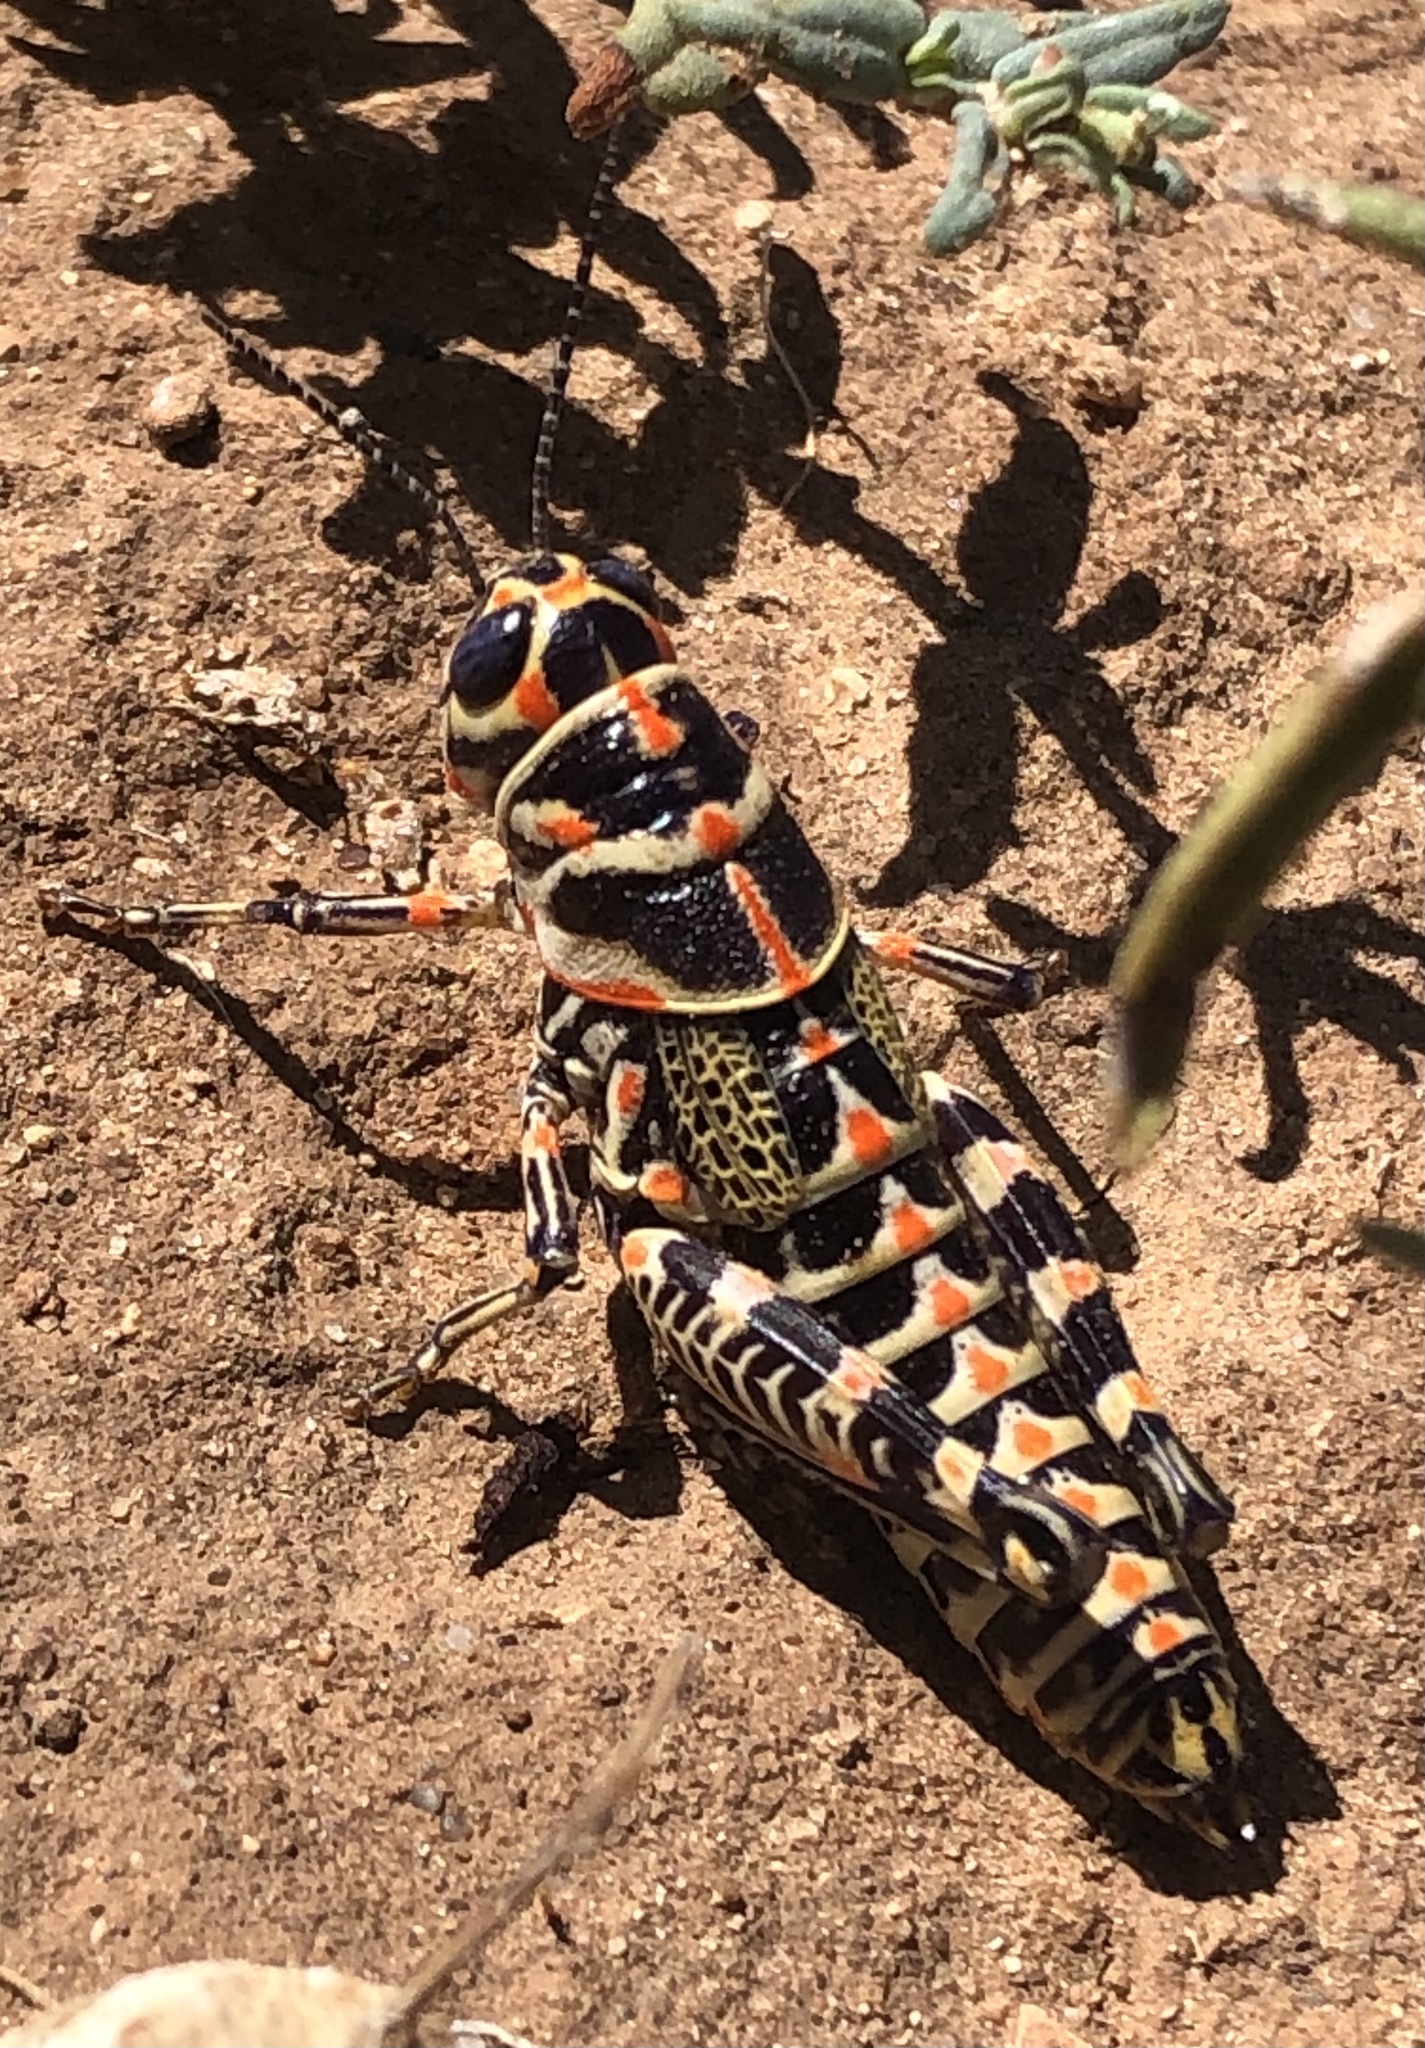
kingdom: Animalia
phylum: Arthropoda
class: Insecta
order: Orthoptera
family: Acrididae
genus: Dactylotum
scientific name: Dactylotum bicolor
